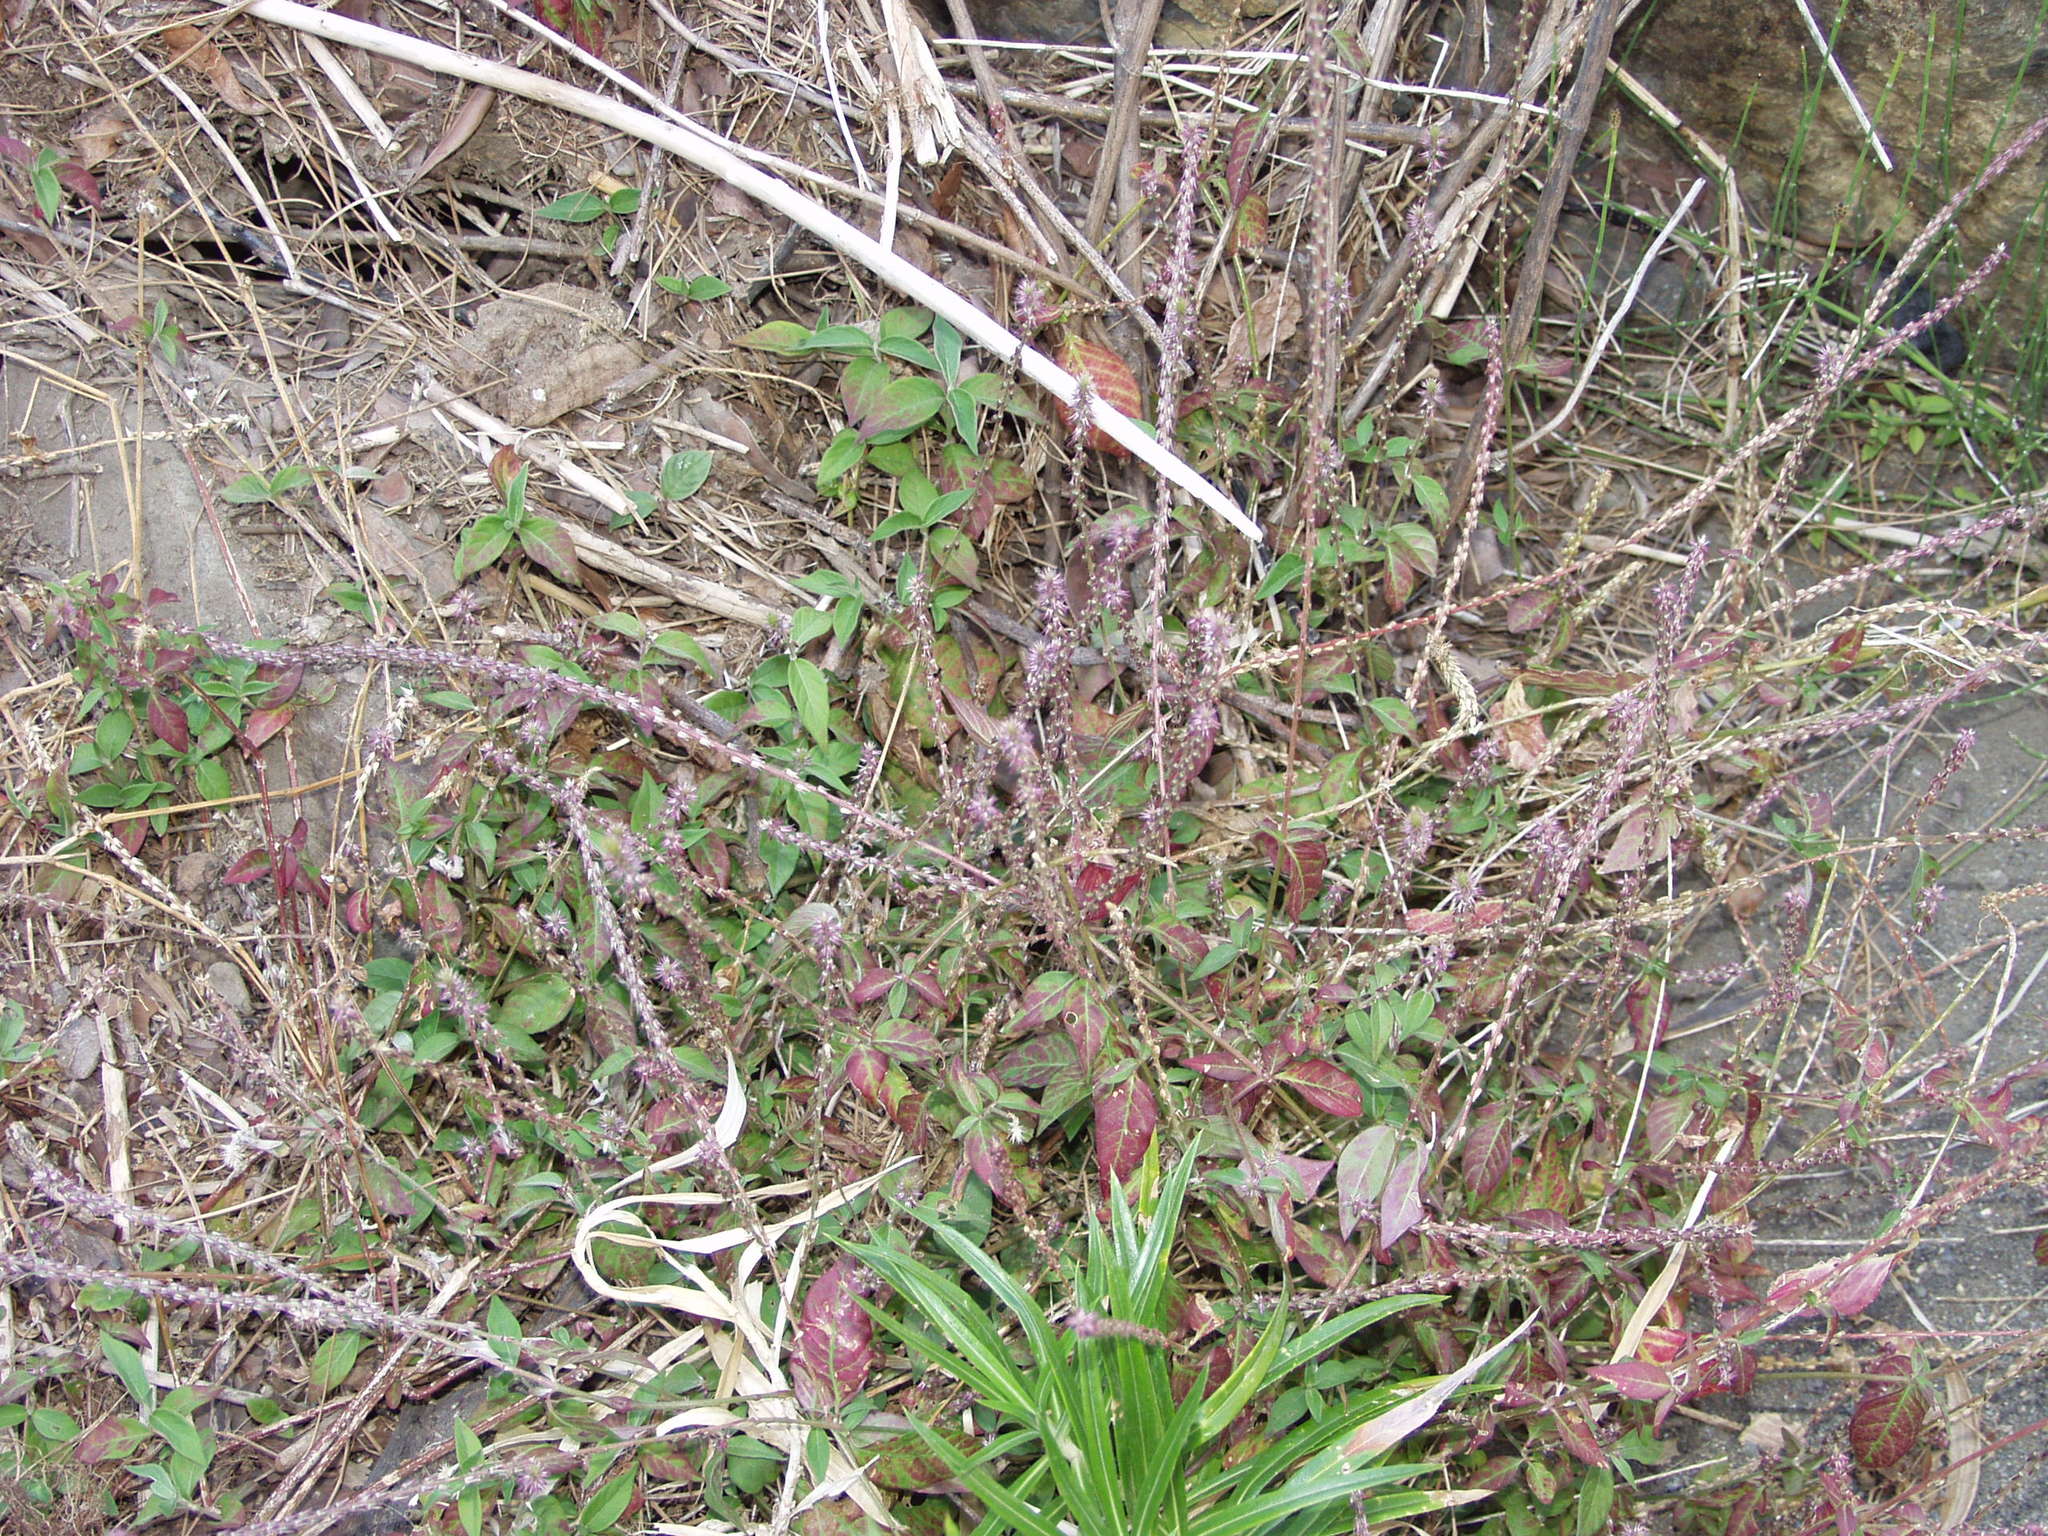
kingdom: Plantae
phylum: Tracheophyta
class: Magnoliopsida
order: Caryophyllales
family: Amaranthaceae
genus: Achyranthes
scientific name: Achyranthes sicula
